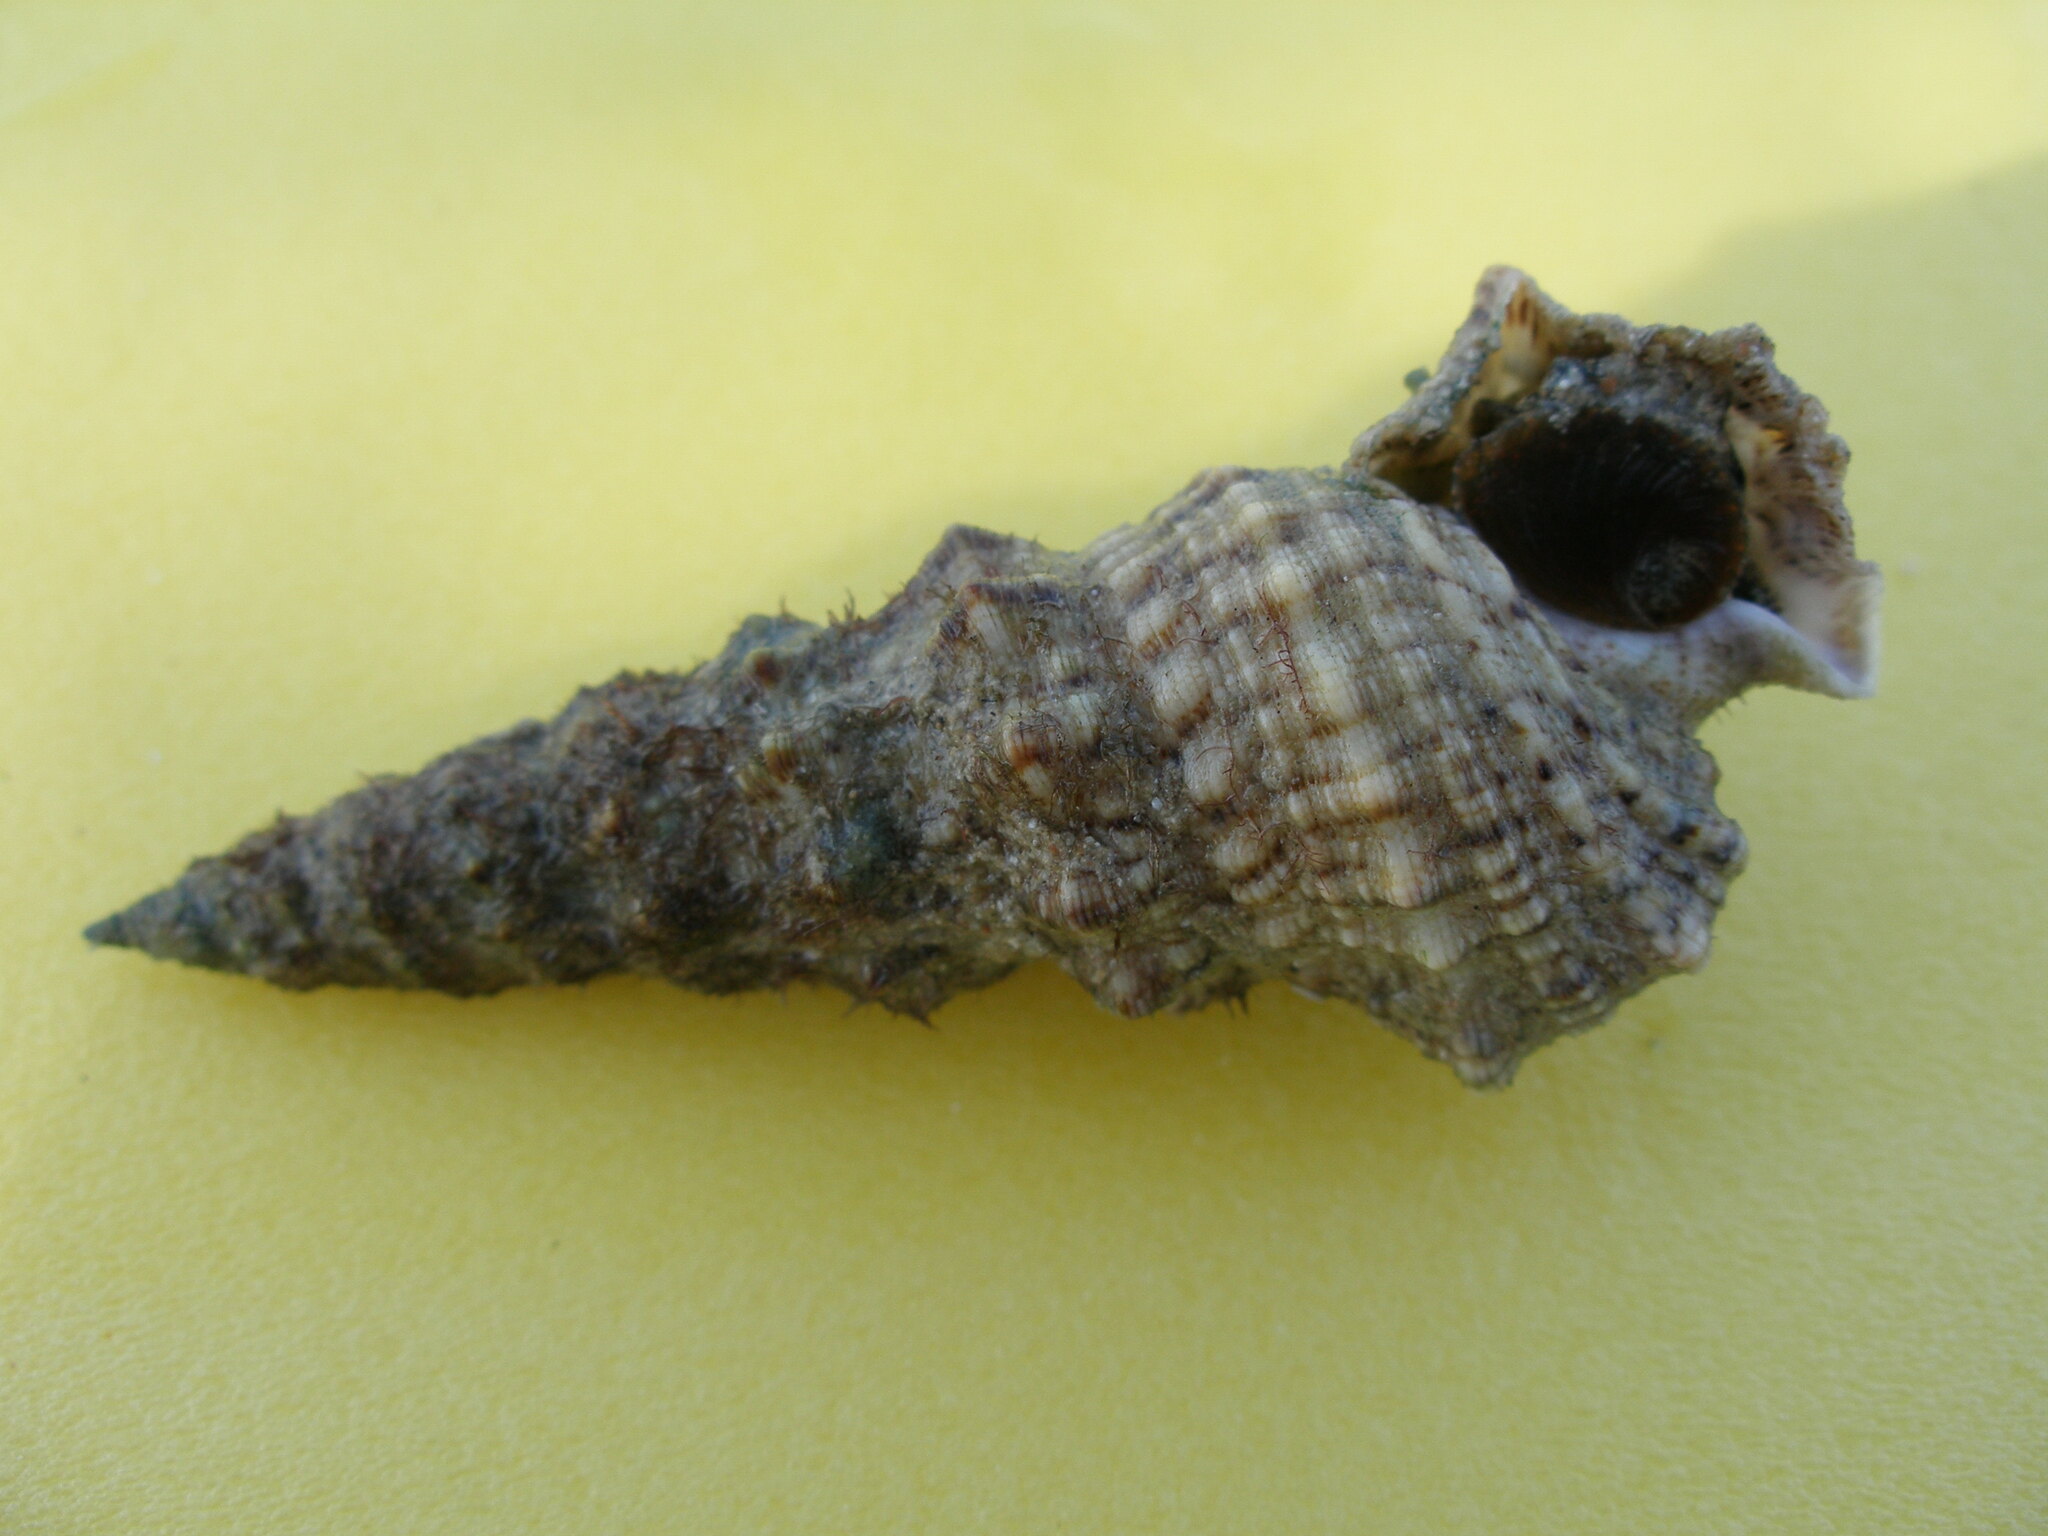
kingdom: Animalia
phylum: Mollusca
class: Gastropoda
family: Cerithiidae
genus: Cerithium
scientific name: Cerithium nodulosum
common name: Nadelschnecke giant knobbed cerith
